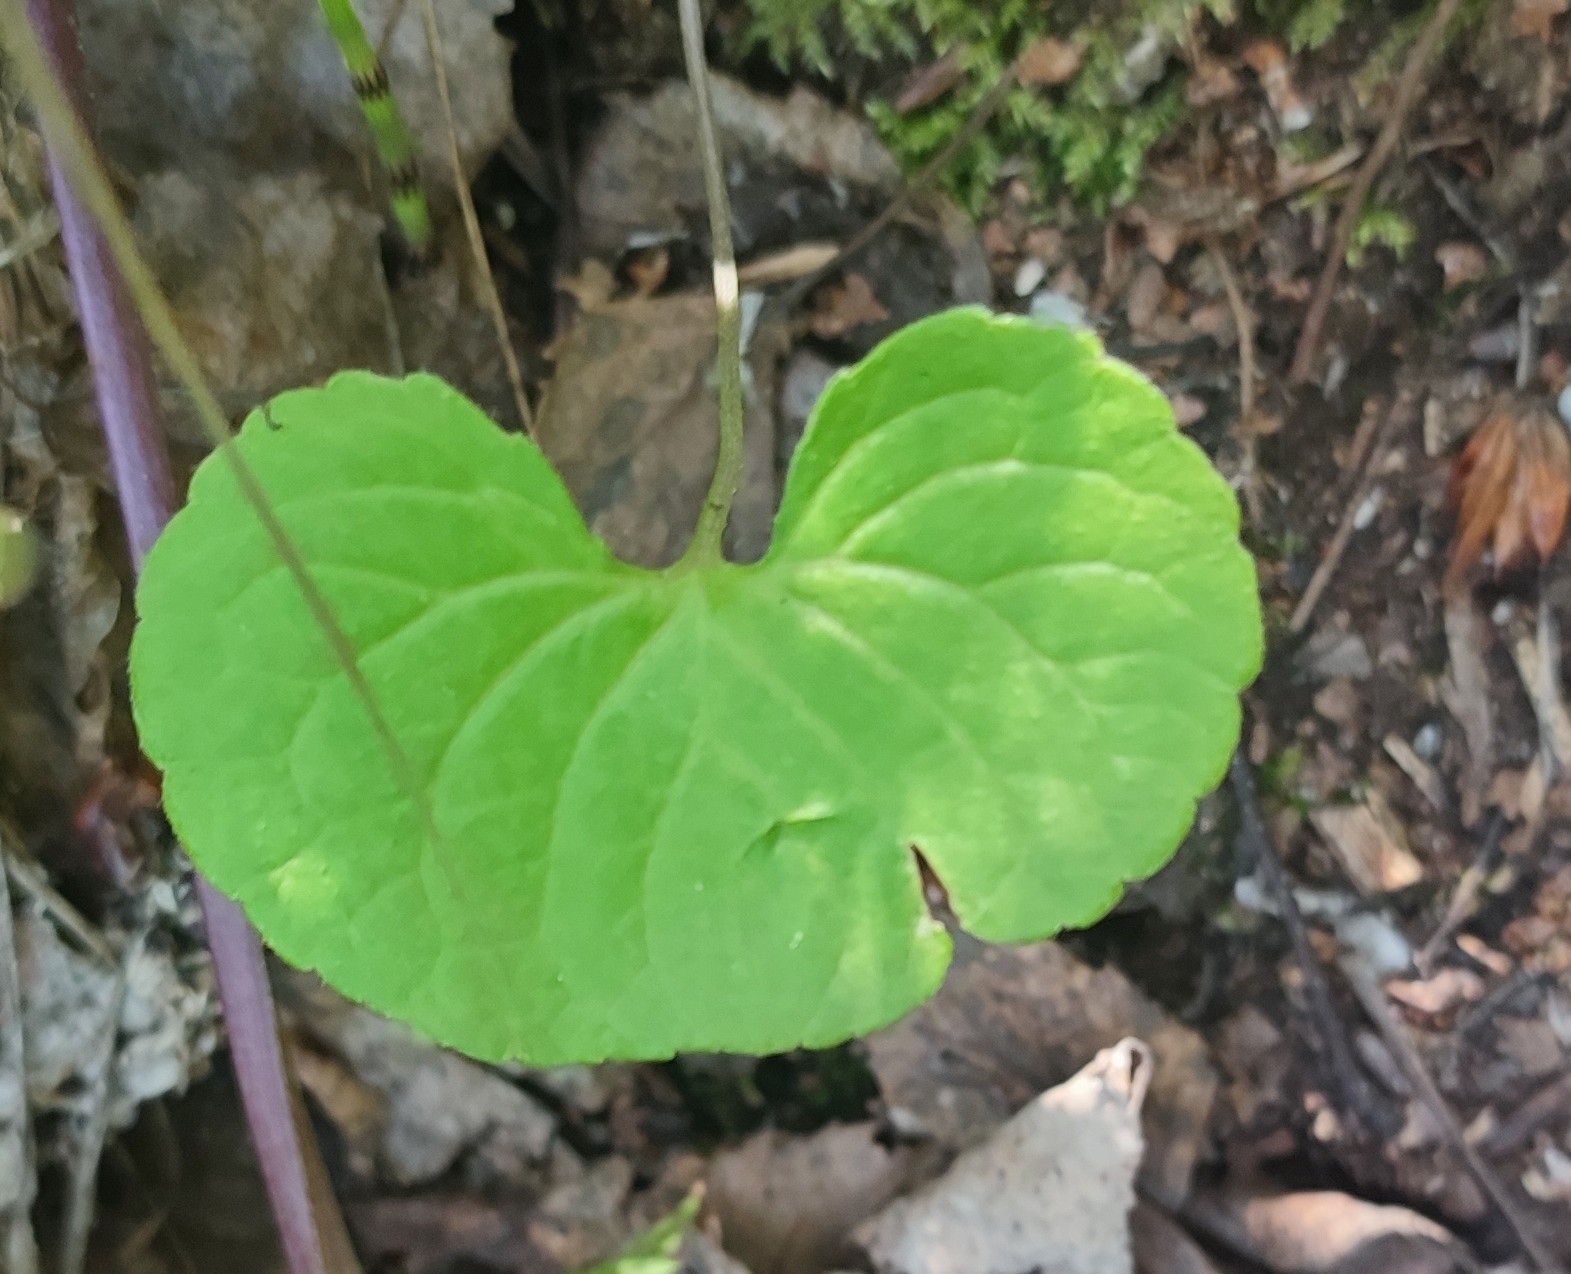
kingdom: Plantae
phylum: Tracheophyta
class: Magnoliopsida
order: Malpighiales
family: Violaceae
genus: Viola
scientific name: Viola mirabilis
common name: Wonder violet
